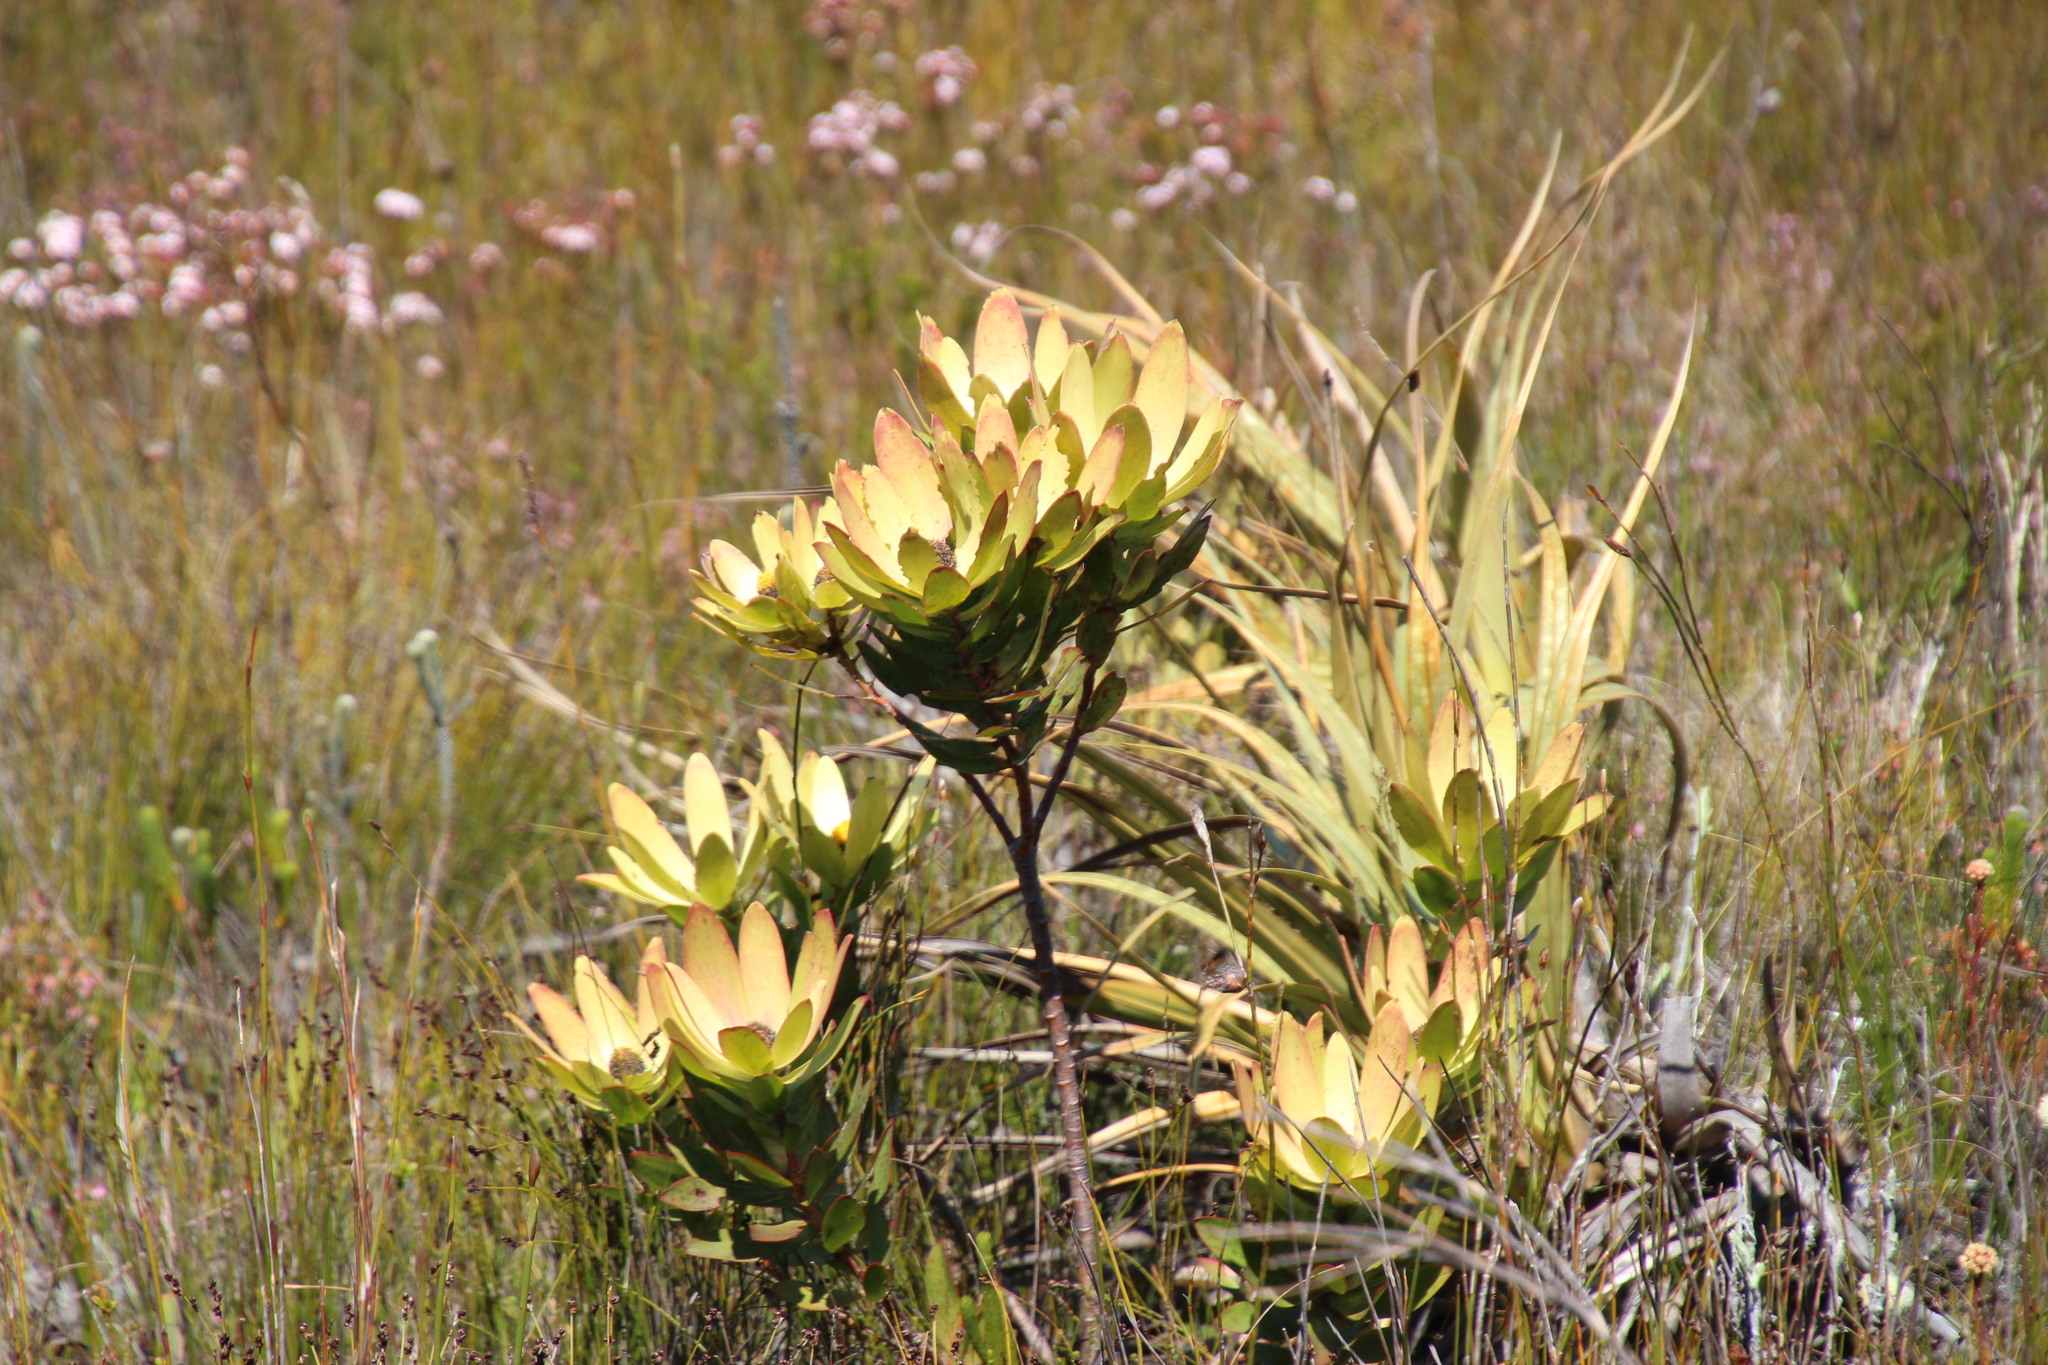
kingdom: Plantae
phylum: Tracheophyta
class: Magnoliopsida
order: Proteales
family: Proteaceae
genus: Leucadendron
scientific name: Leucadendron gandogeri
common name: Broad-leaf conebush
